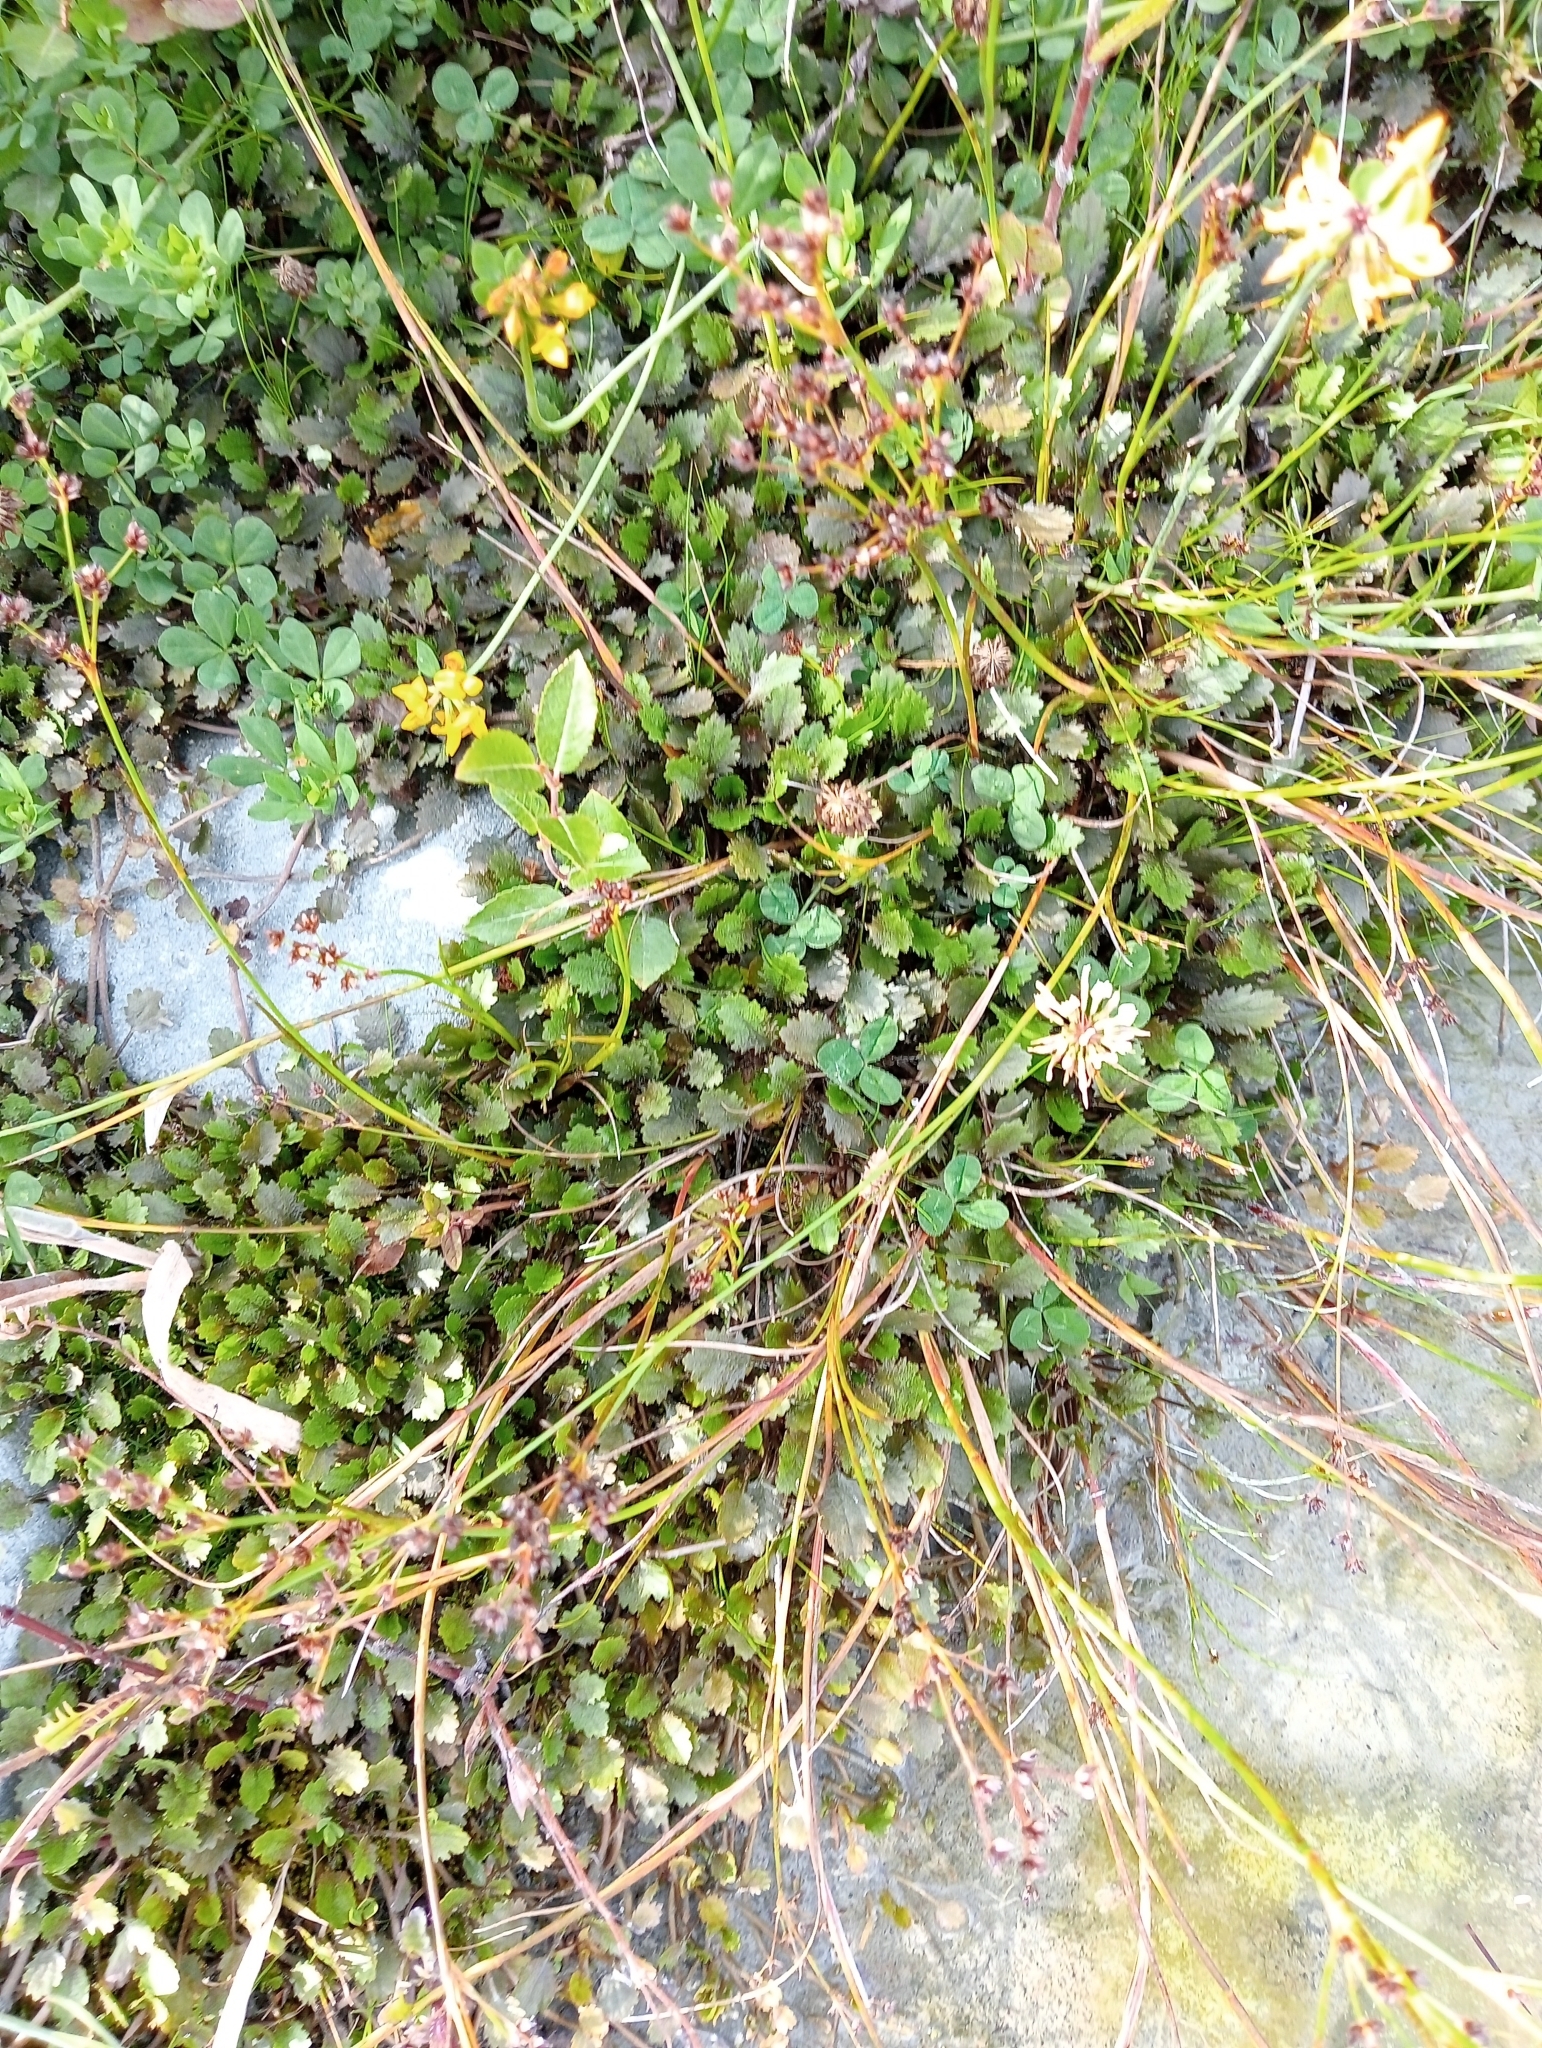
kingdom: Plantae
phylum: Tracheophyta
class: Magnoliopsida
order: Gunnerales
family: Gunneraceae
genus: Gunnera
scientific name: Gunnera dentata
